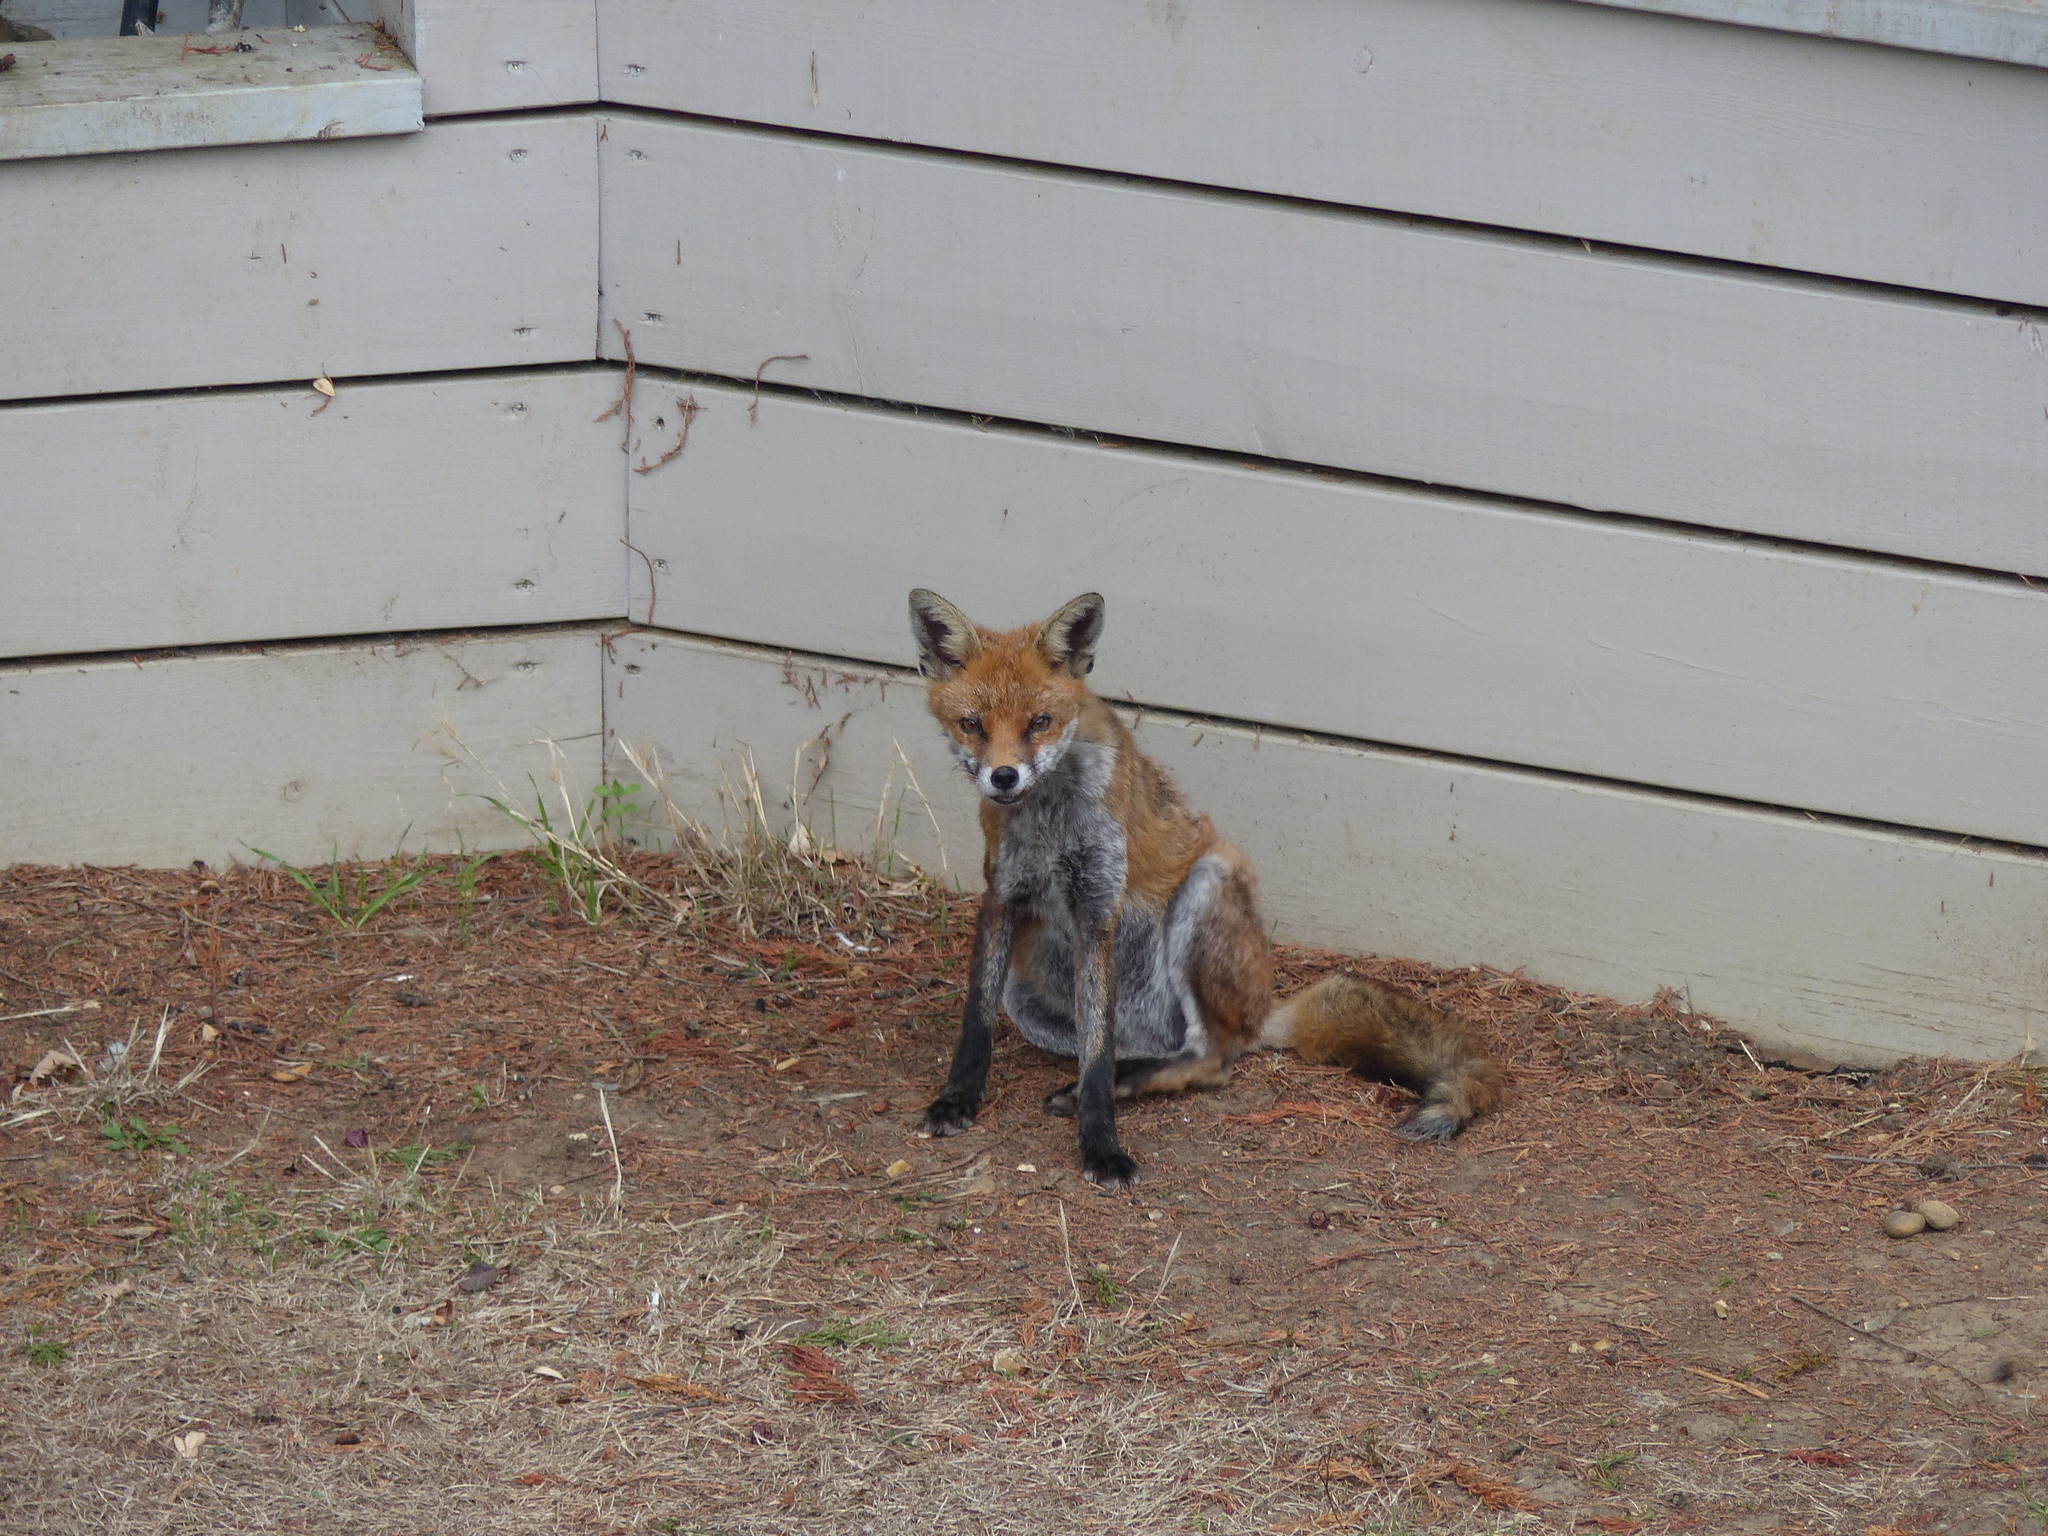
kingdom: Animalia
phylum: Chordata
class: Mammalia
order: Carnivora
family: Canidae
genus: Vulpes
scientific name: Vulpes vulpes
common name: Red fox
